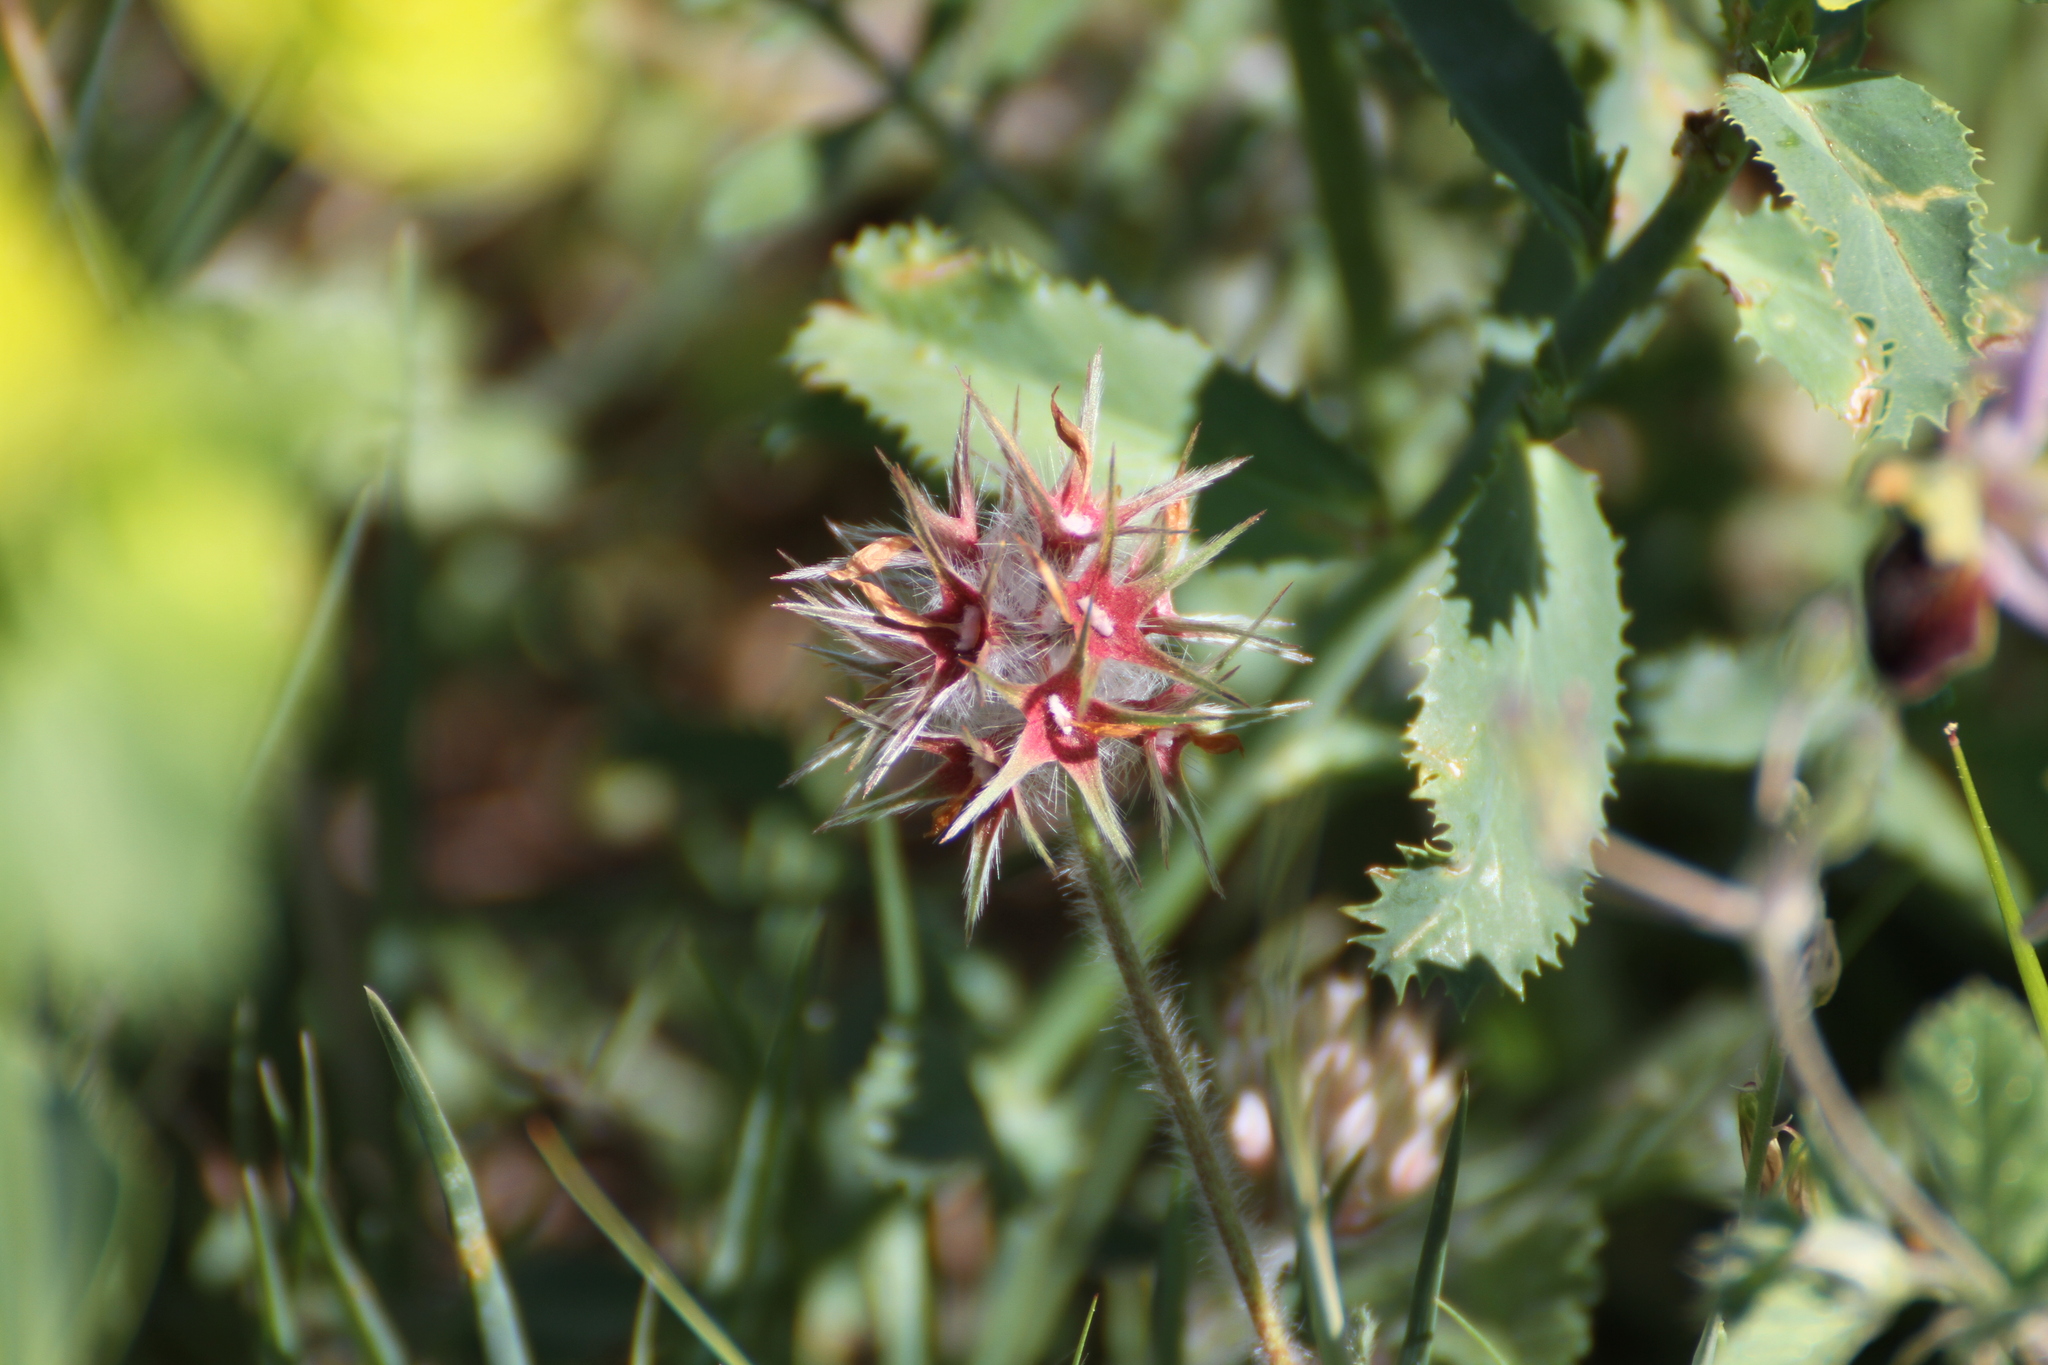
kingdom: Plantae
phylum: Tracheophyta
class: Magnoliopsida
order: Fabales
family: Fabaceae
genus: Trifolium
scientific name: Trifolium stellatum
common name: Starry clover
